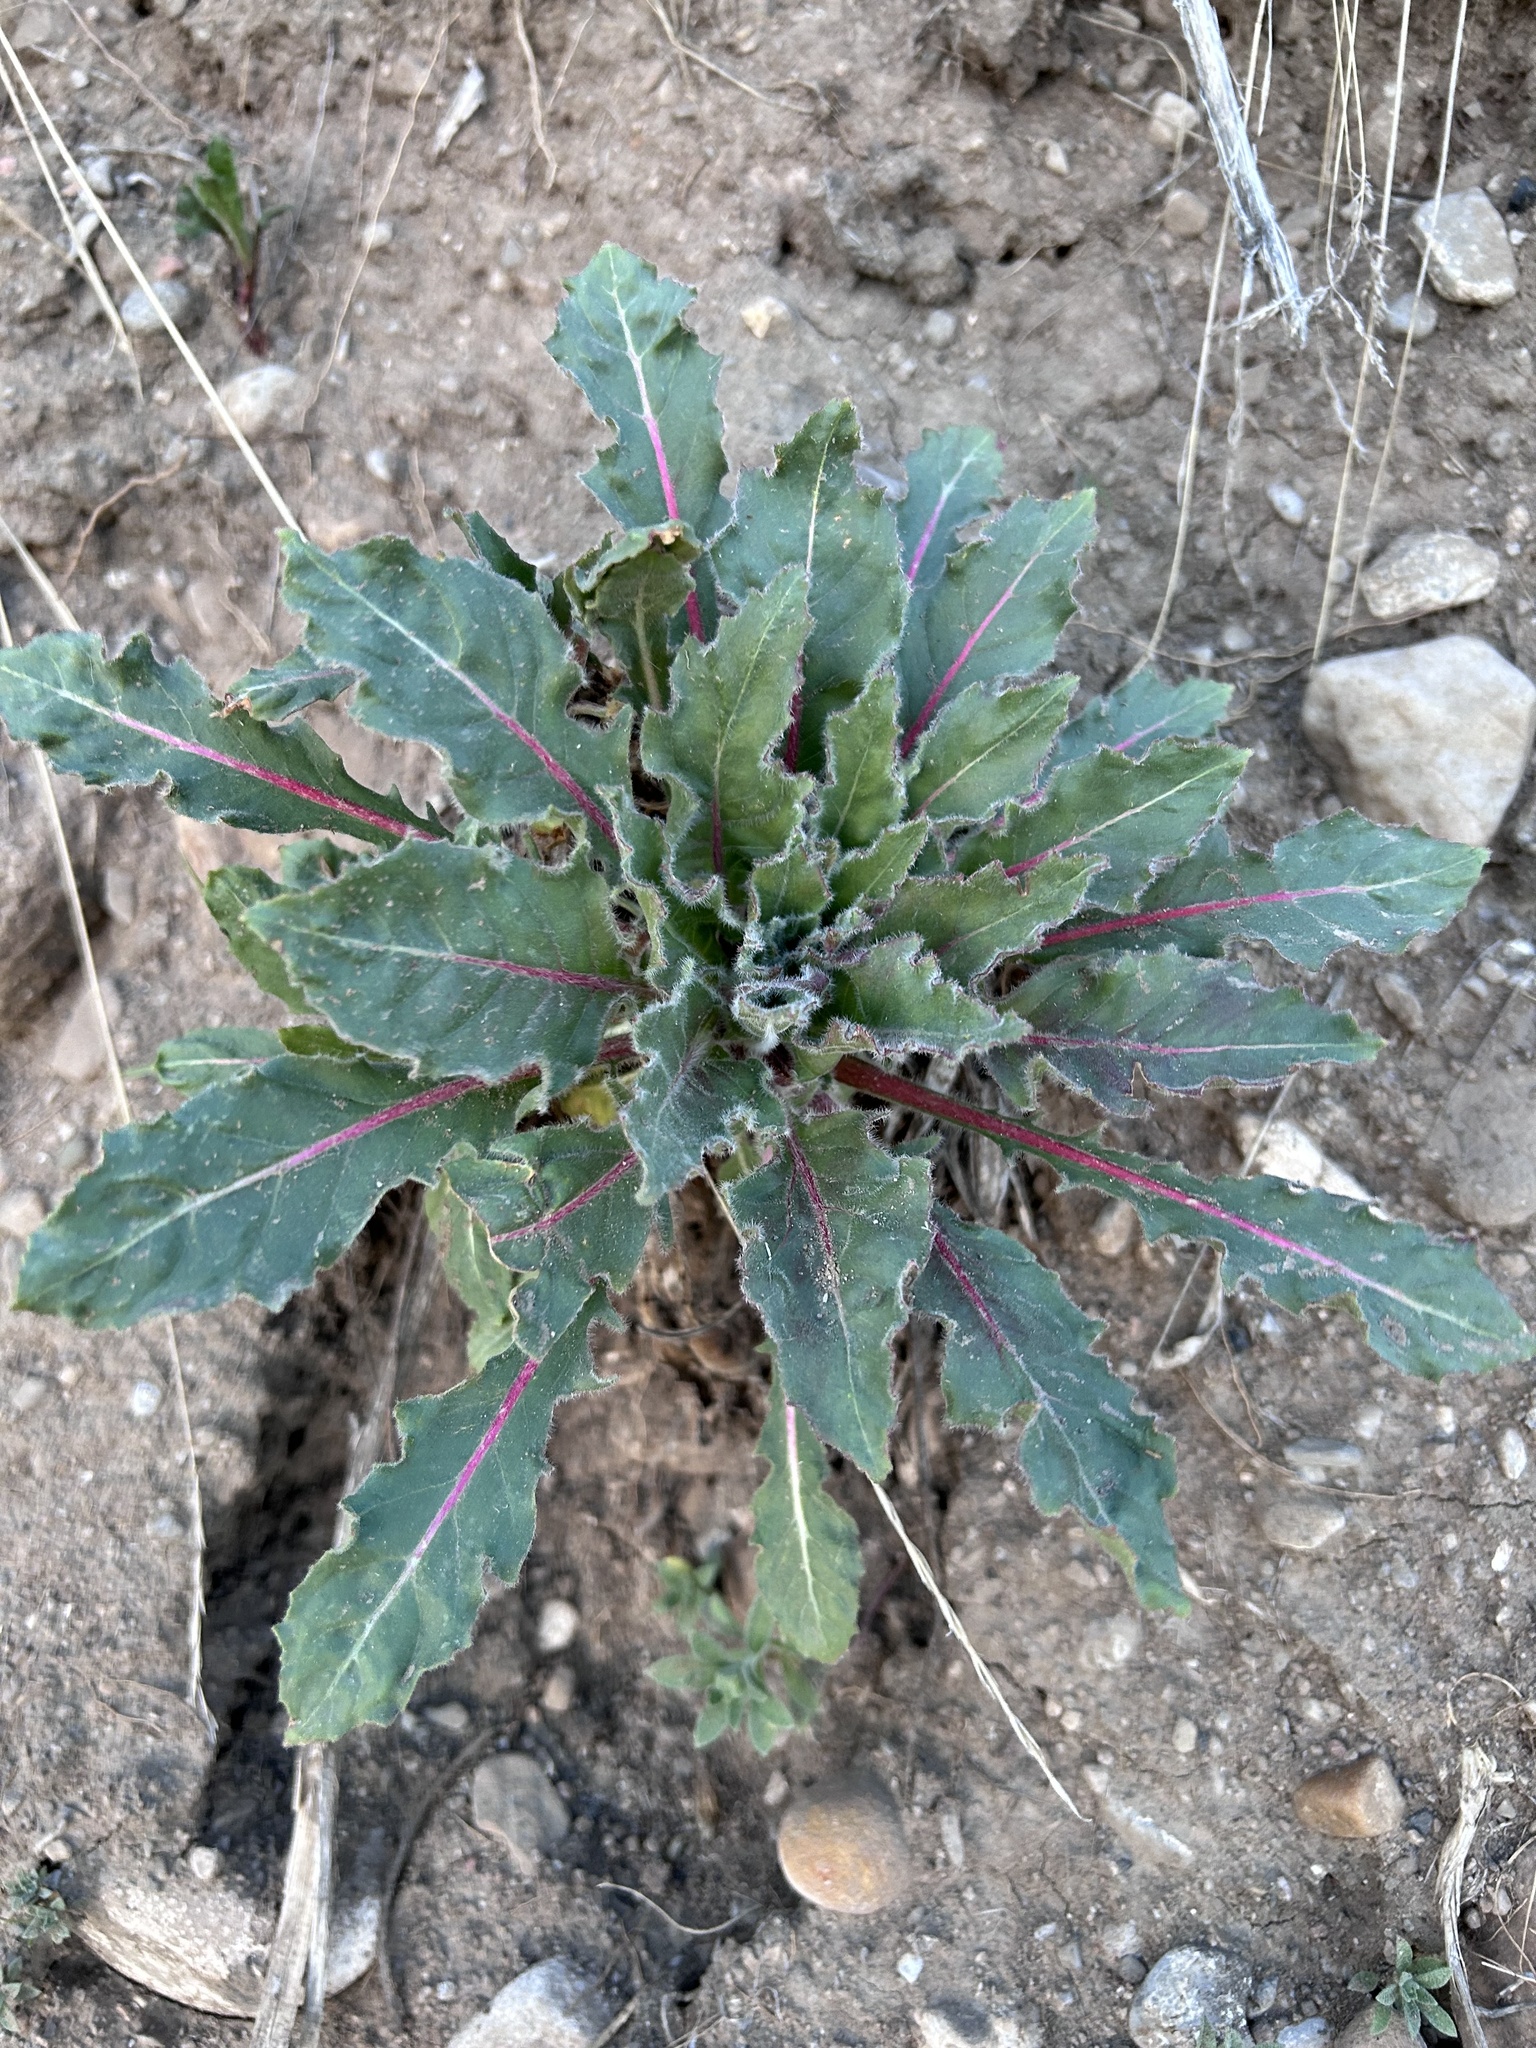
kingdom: Plantae
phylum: Tracheophyta
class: Magnoliopsida
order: Myrtales
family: Onagraceae
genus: Oenothera
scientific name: Oenothera cespitosa
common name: Tufted evening-primrose
